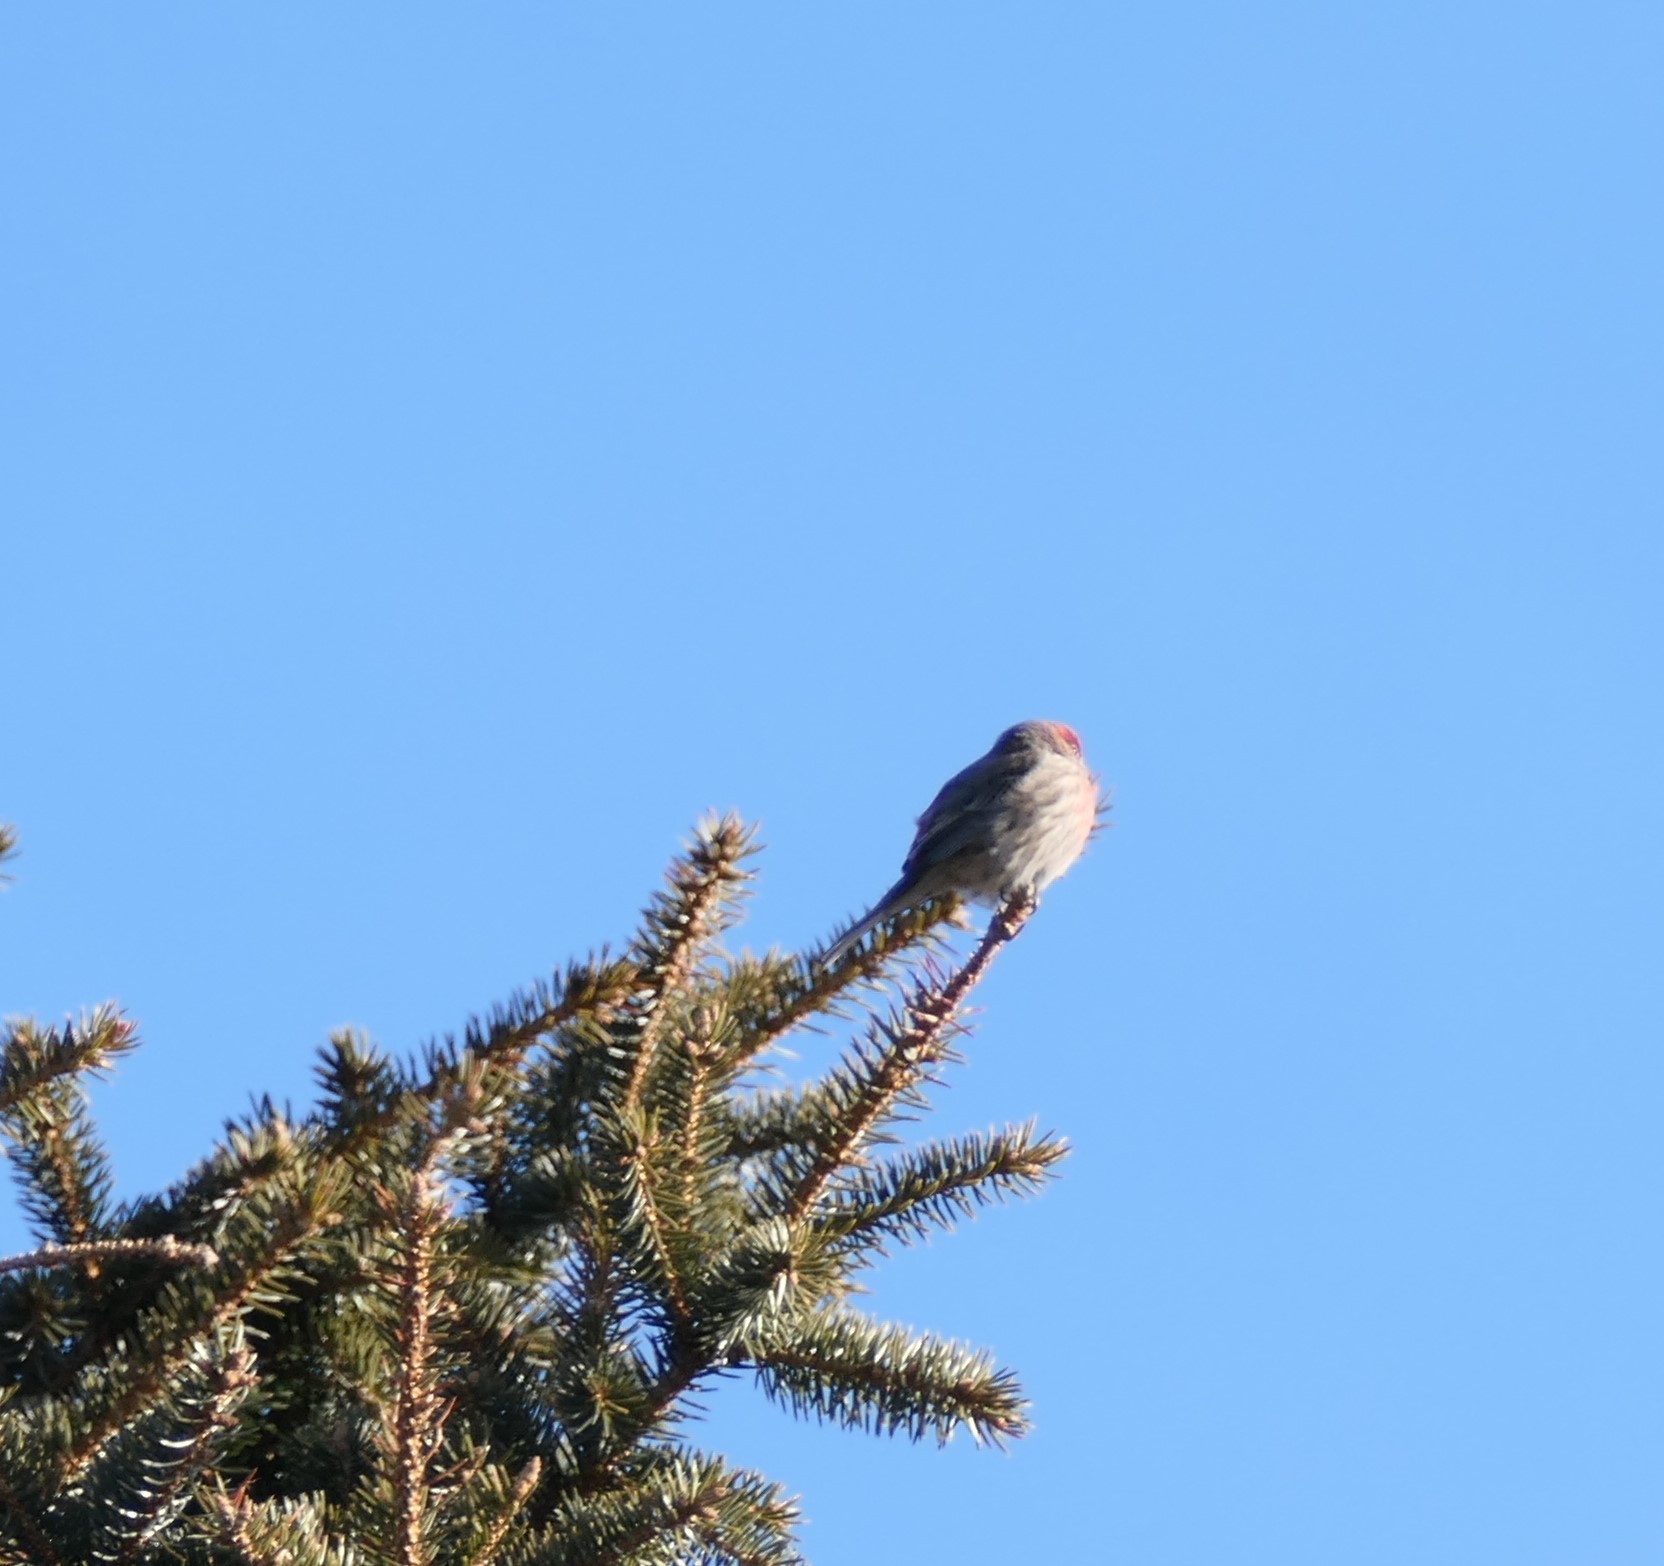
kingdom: Animalia
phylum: Chordata
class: Aves
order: Passeriformes
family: Fringillidae
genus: Acanthis
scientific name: Acanthis flammea
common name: Common redpoll
